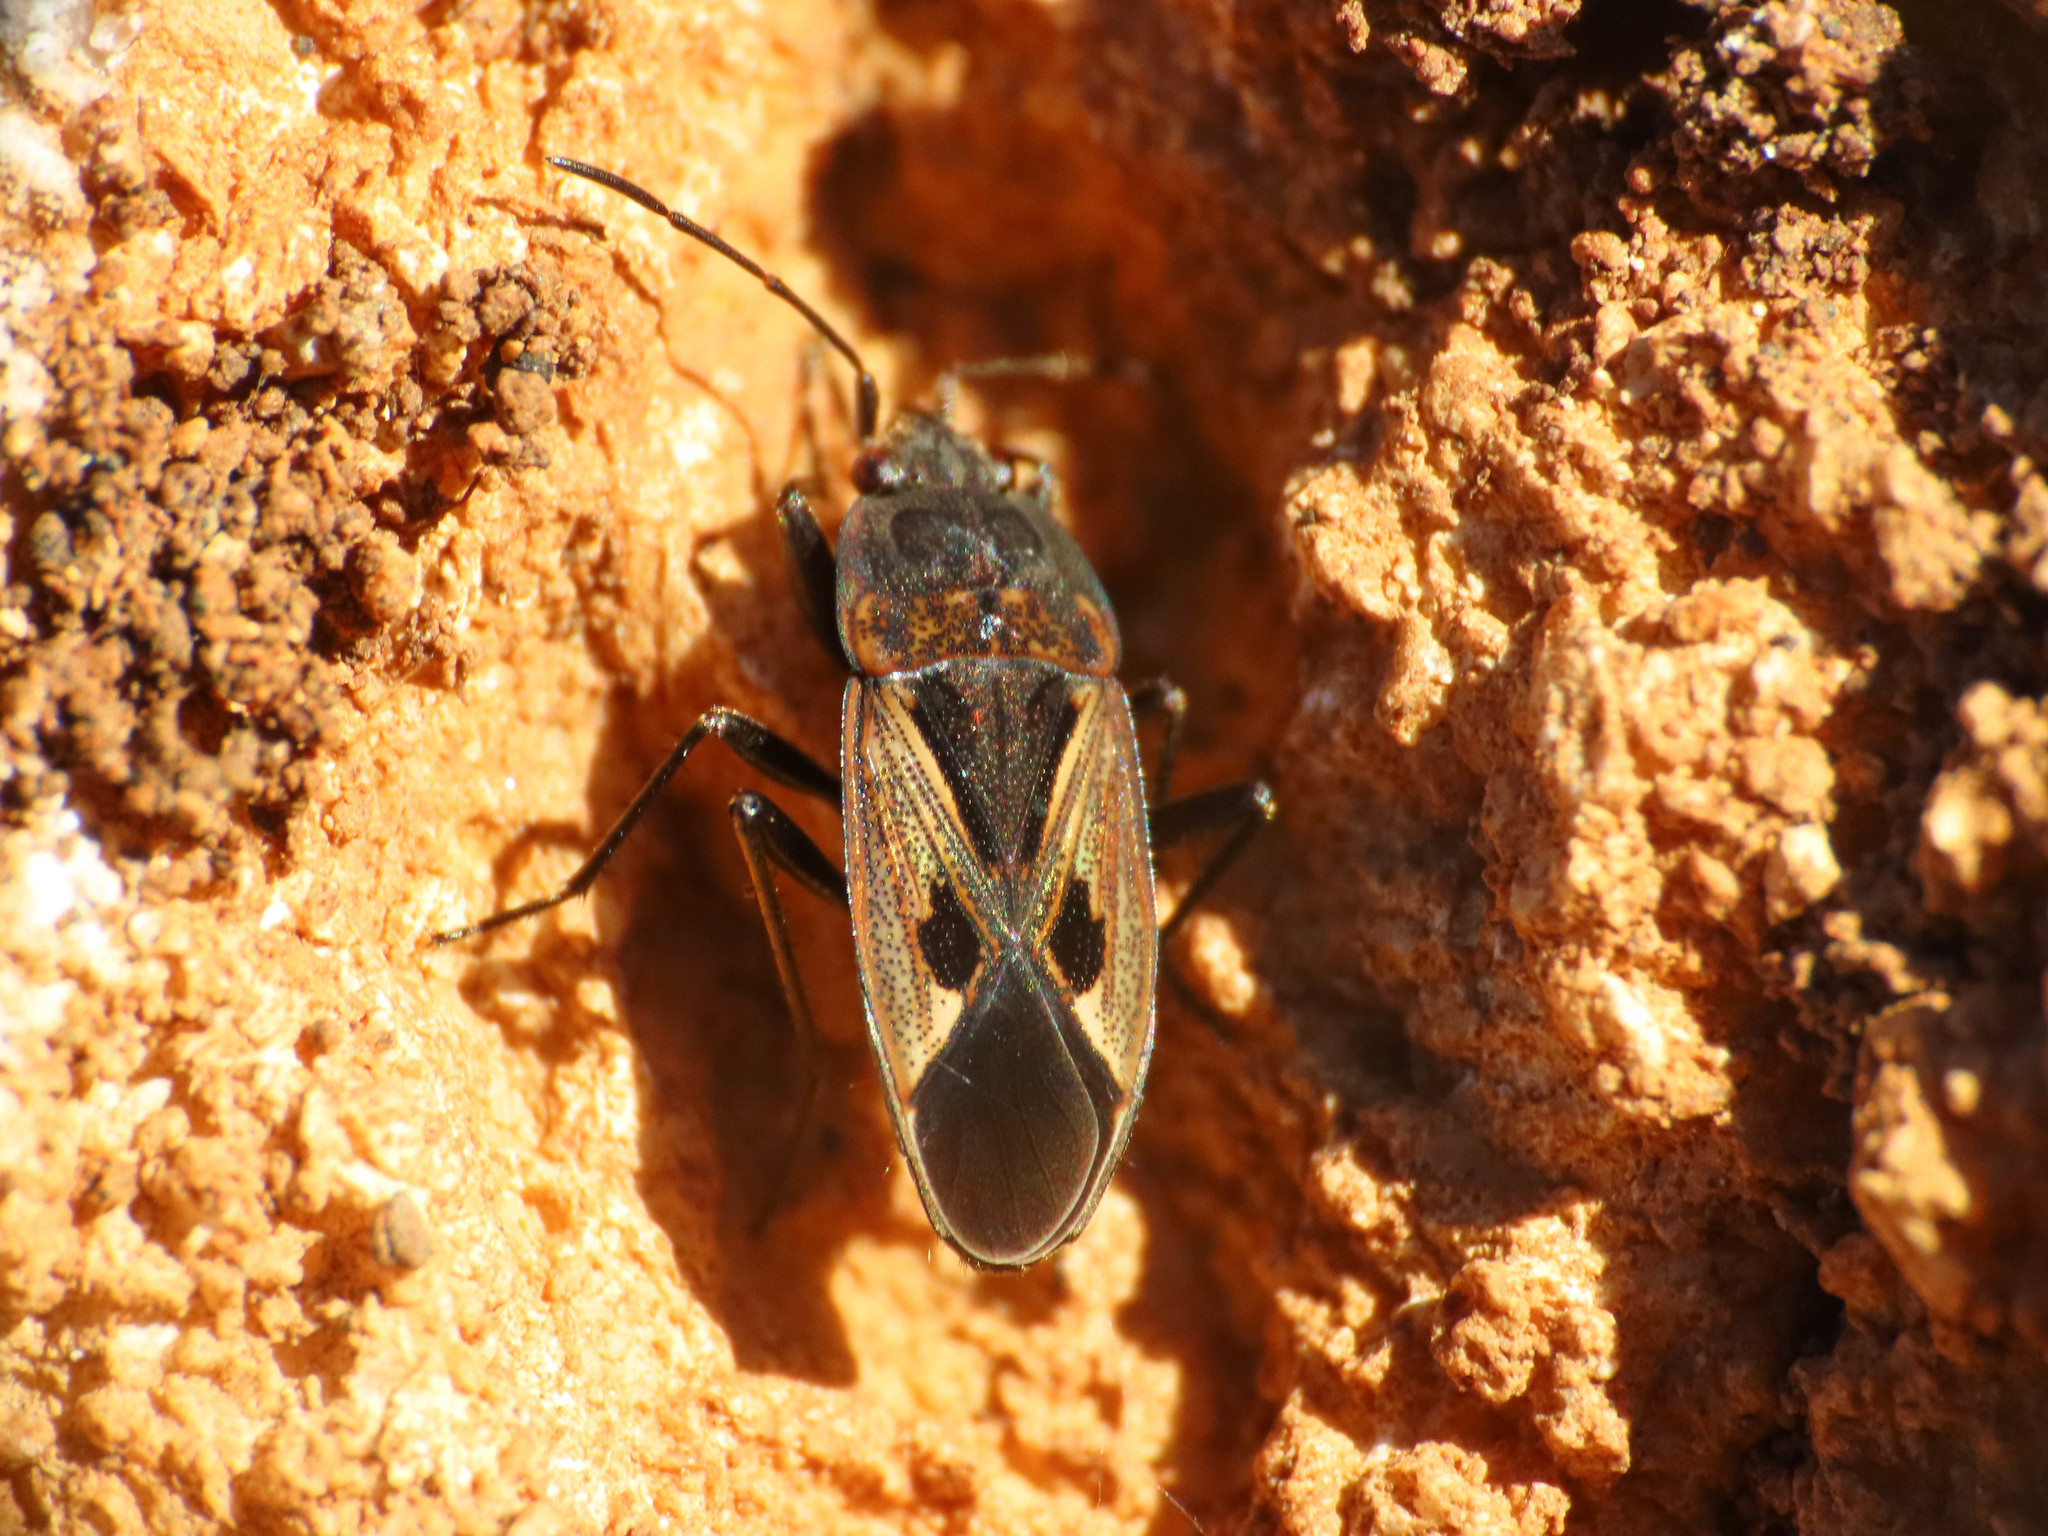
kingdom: Animalia
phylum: Arthropoda
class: Insecta
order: Hemiptera
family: Rhyparochromidae
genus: Rhyparochromus
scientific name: Rhyparochromus pini
